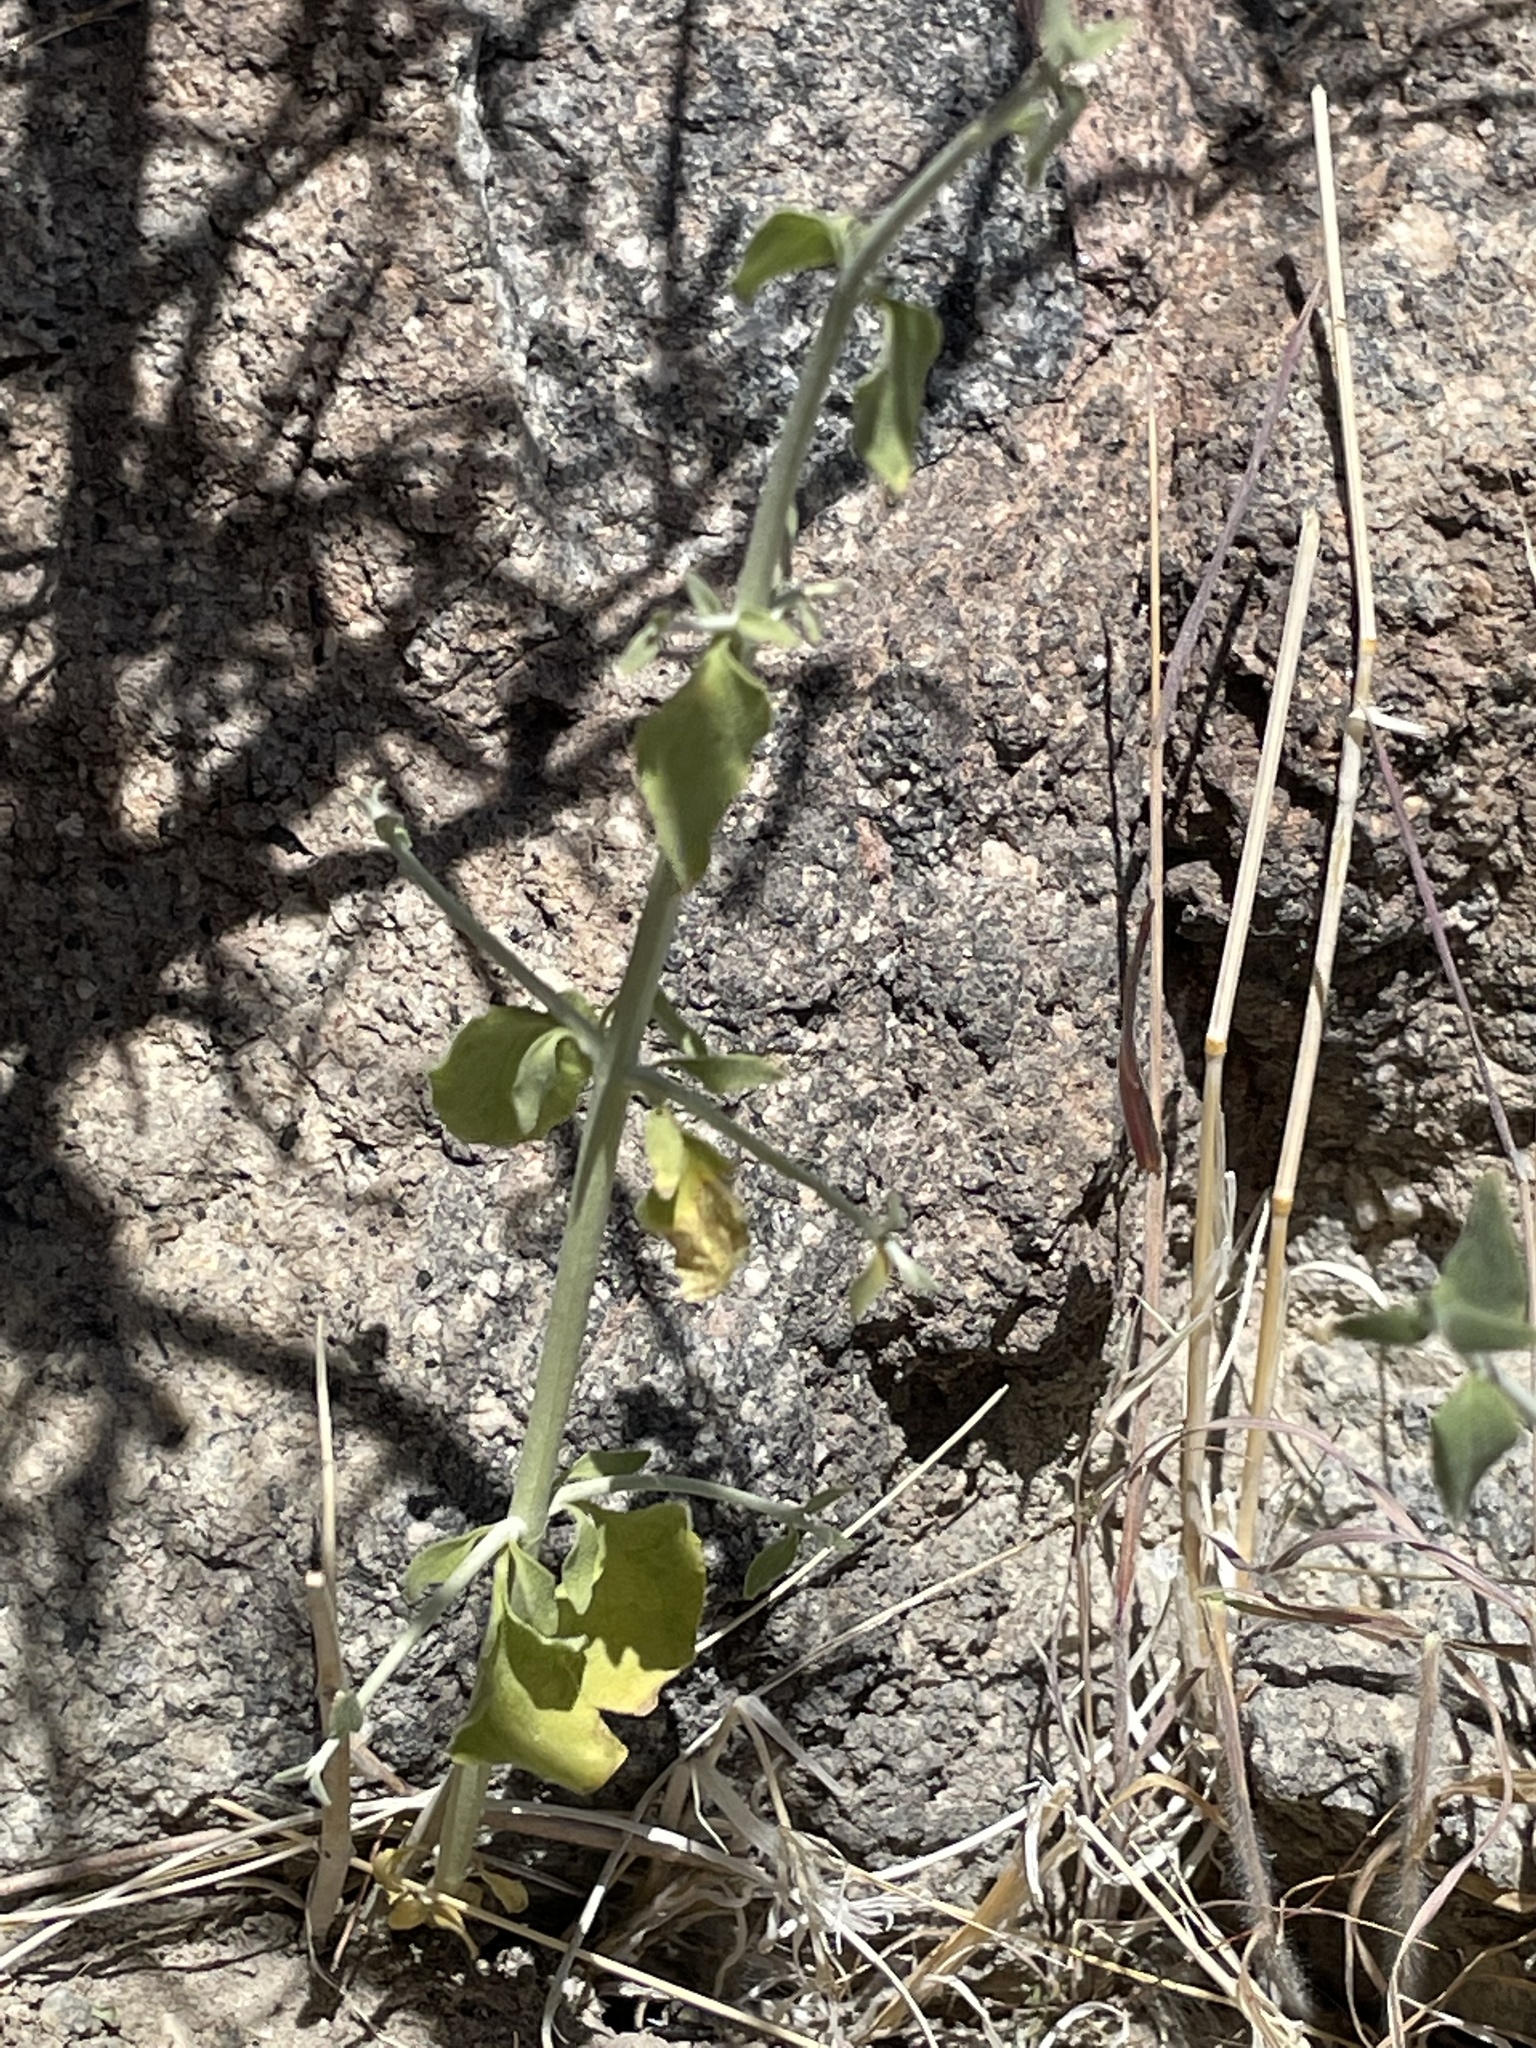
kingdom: Plantae
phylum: Tracheophyta
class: Magnoliopsida
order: Lamiales
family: Lamiaceae
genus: Scutellaria
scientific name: Scutellaria mexicana
